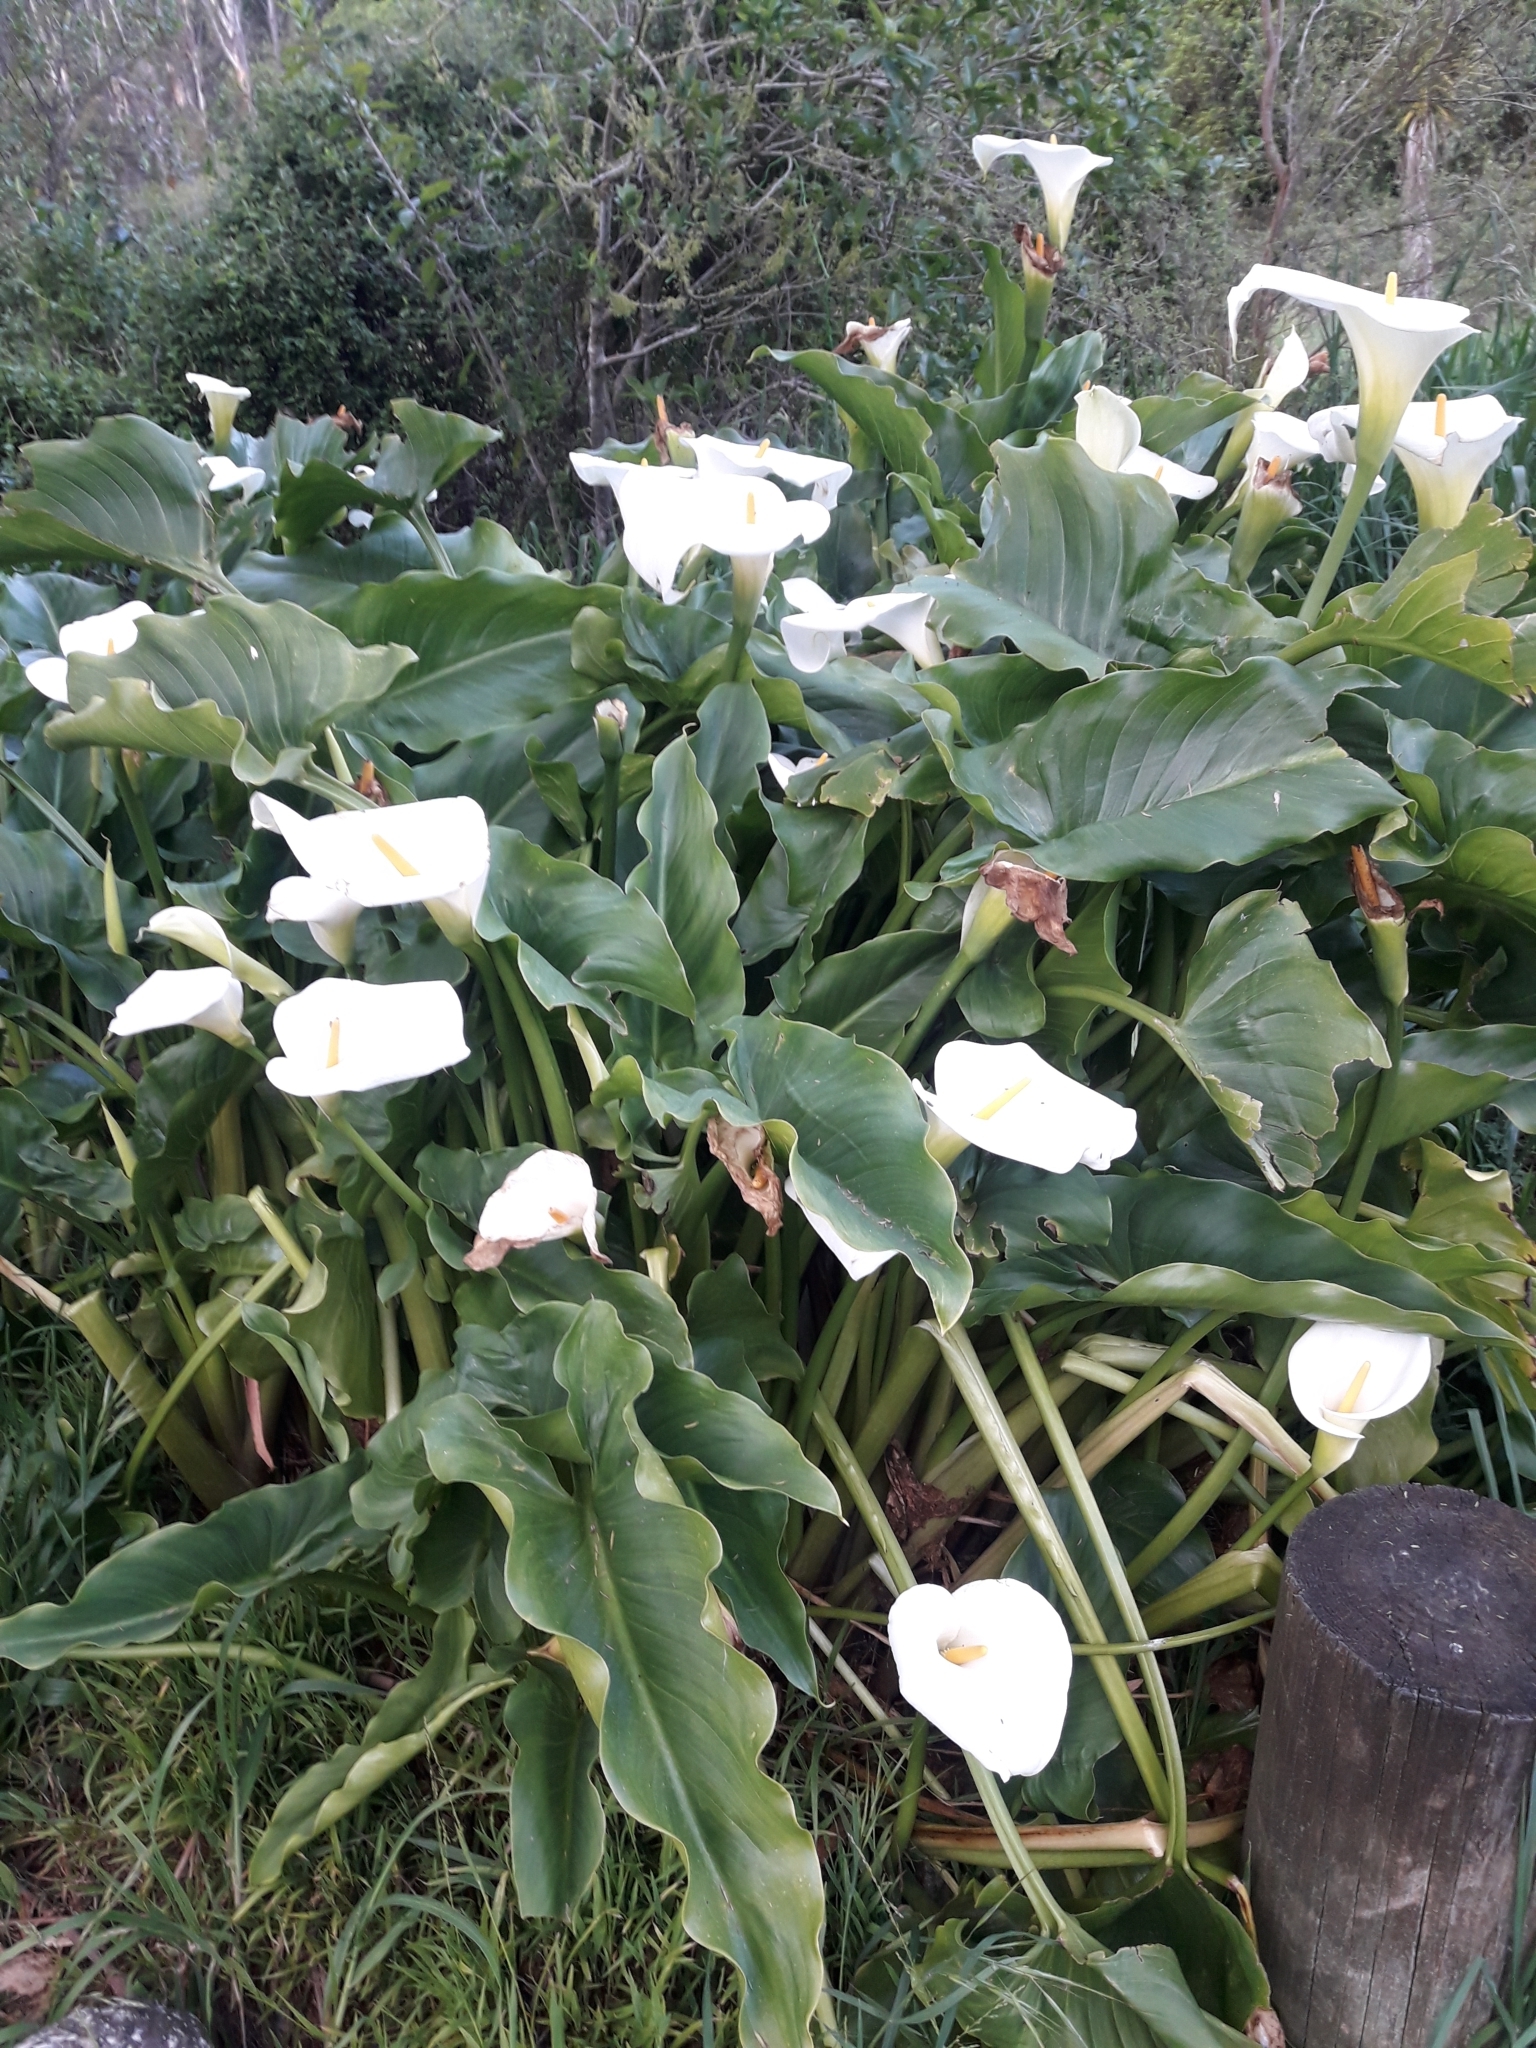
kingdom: Plantae
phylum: Tracheophyta
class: Liliopsida
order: Alismatales
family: Araceae
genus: Zantedeschia
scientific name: Zantedeschia aethiopica
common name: Altar-lily
